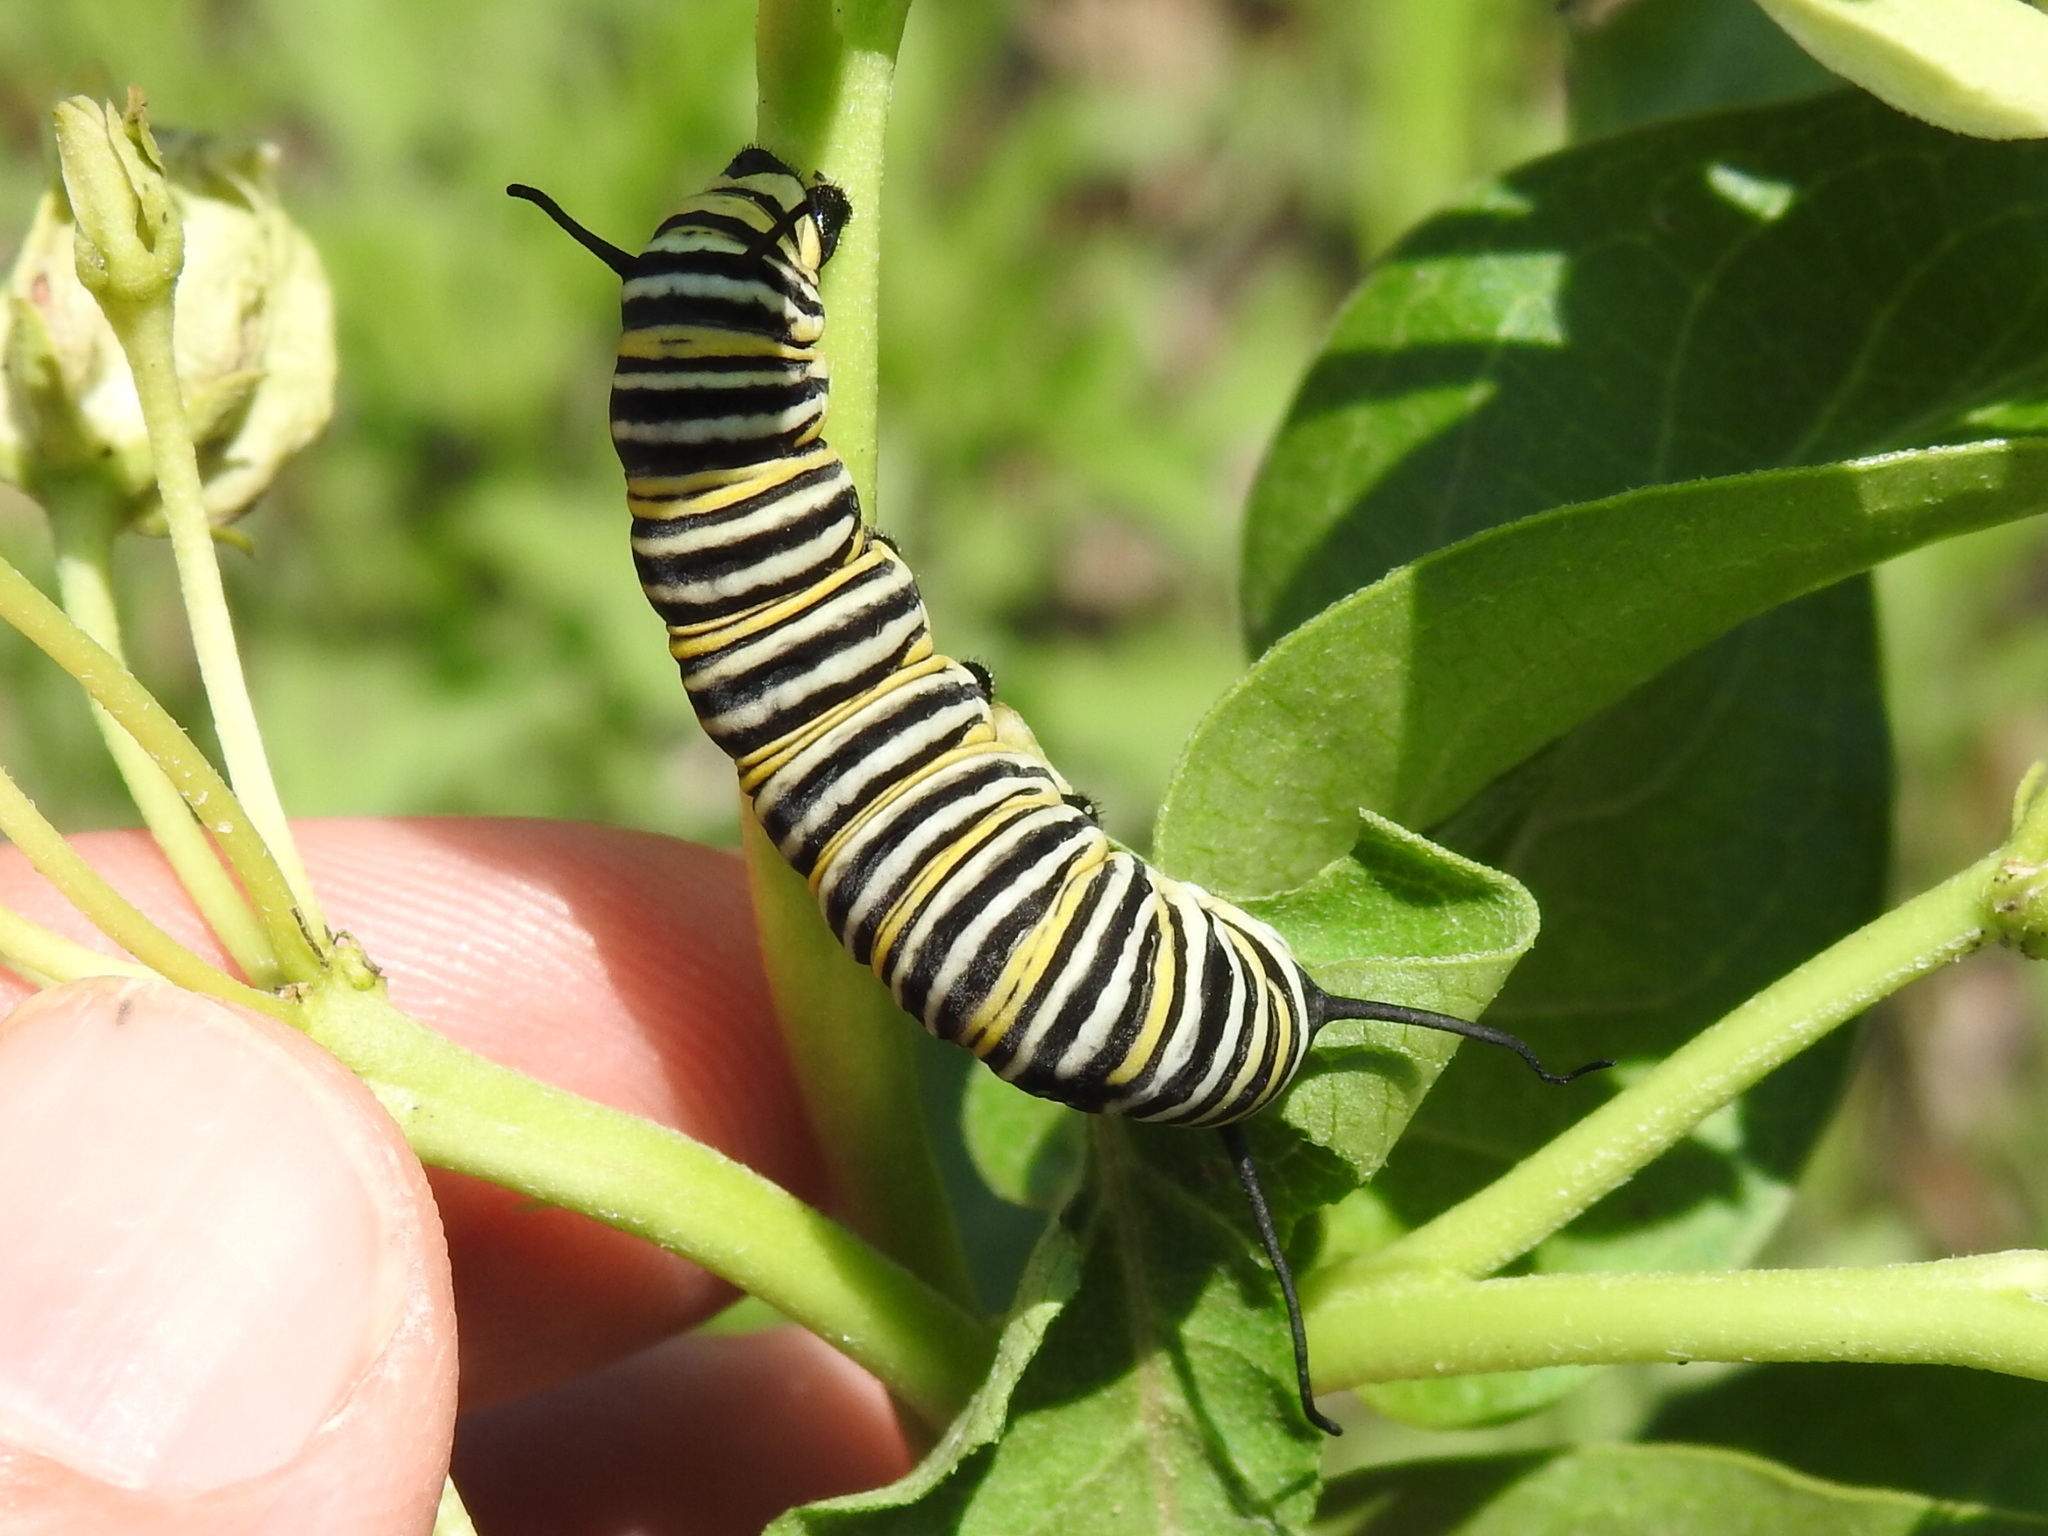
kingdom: Animalia
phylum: Arthropoda
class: Insecta
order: Lepidoptera
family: Nymphalidae
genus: Danaus
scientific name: Danaus plexippus
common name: Monarch
